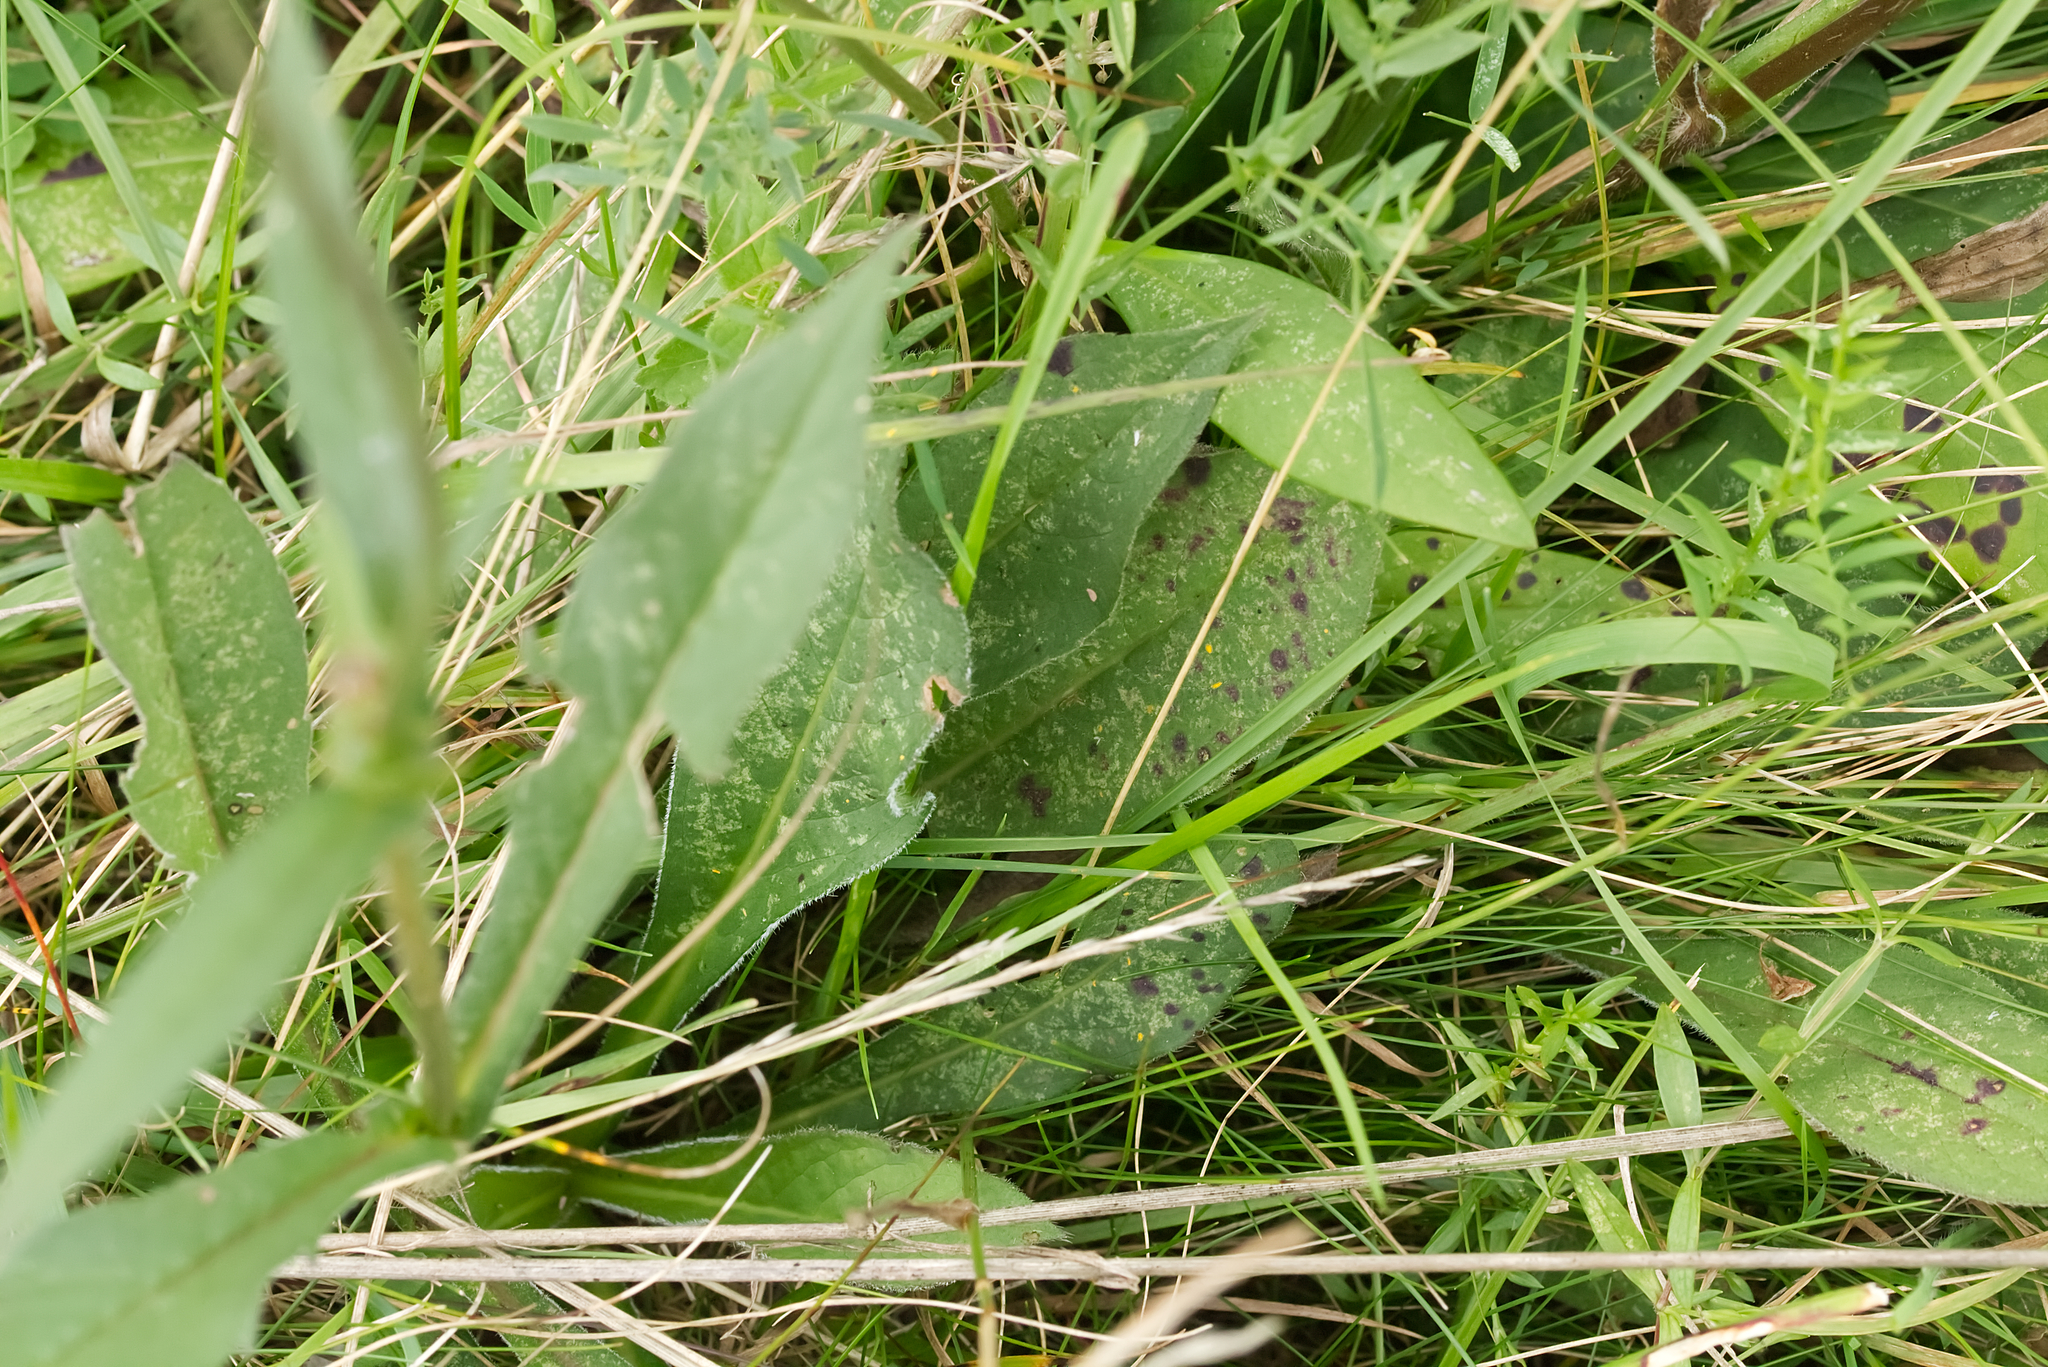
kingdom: Plantae
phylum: Tracheophyta
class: Magnoliopsida
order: Dipsacales
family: Caprifoliaceae
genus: Succisa
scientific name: Succisa pratensis
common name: Devil's-bit
